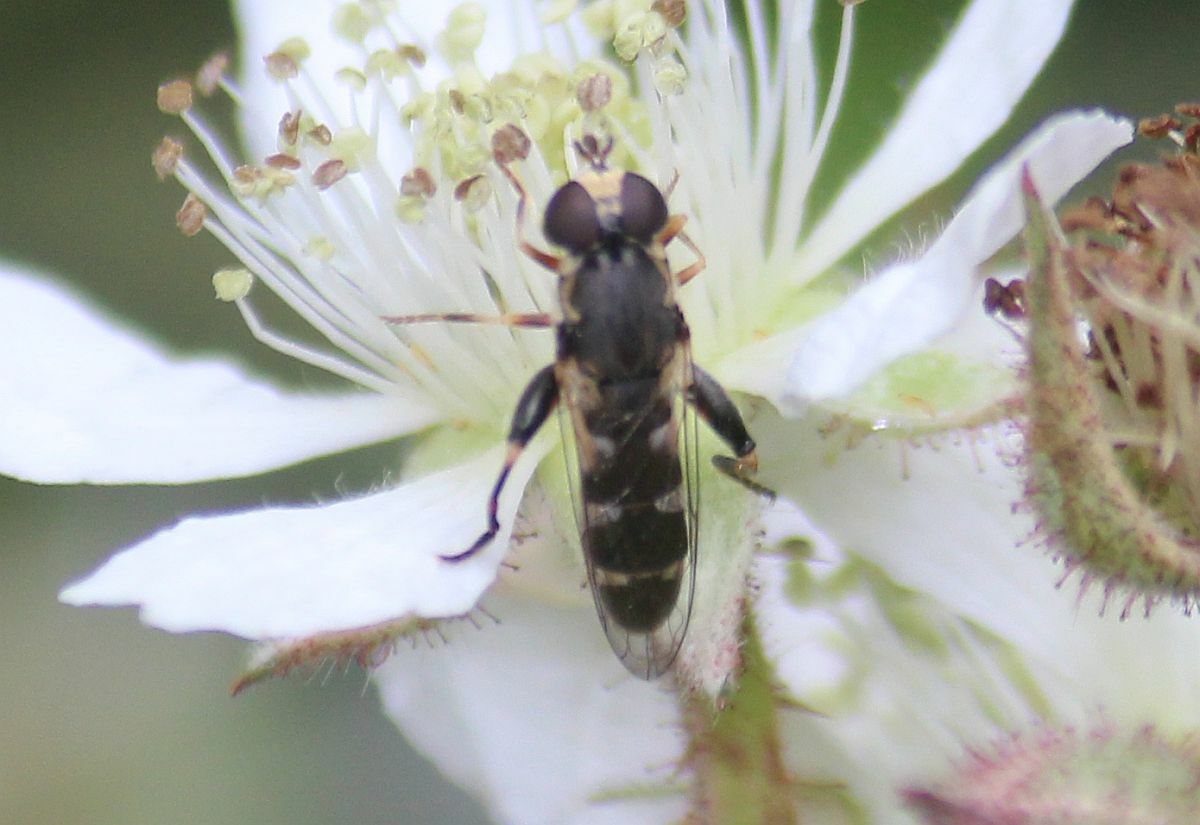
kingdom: Animalia
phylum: Arthropoda
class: Insecta
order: Diptera
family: Syrphidae
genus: Syritta
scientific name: Syritta pipiens
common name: Hover fly
